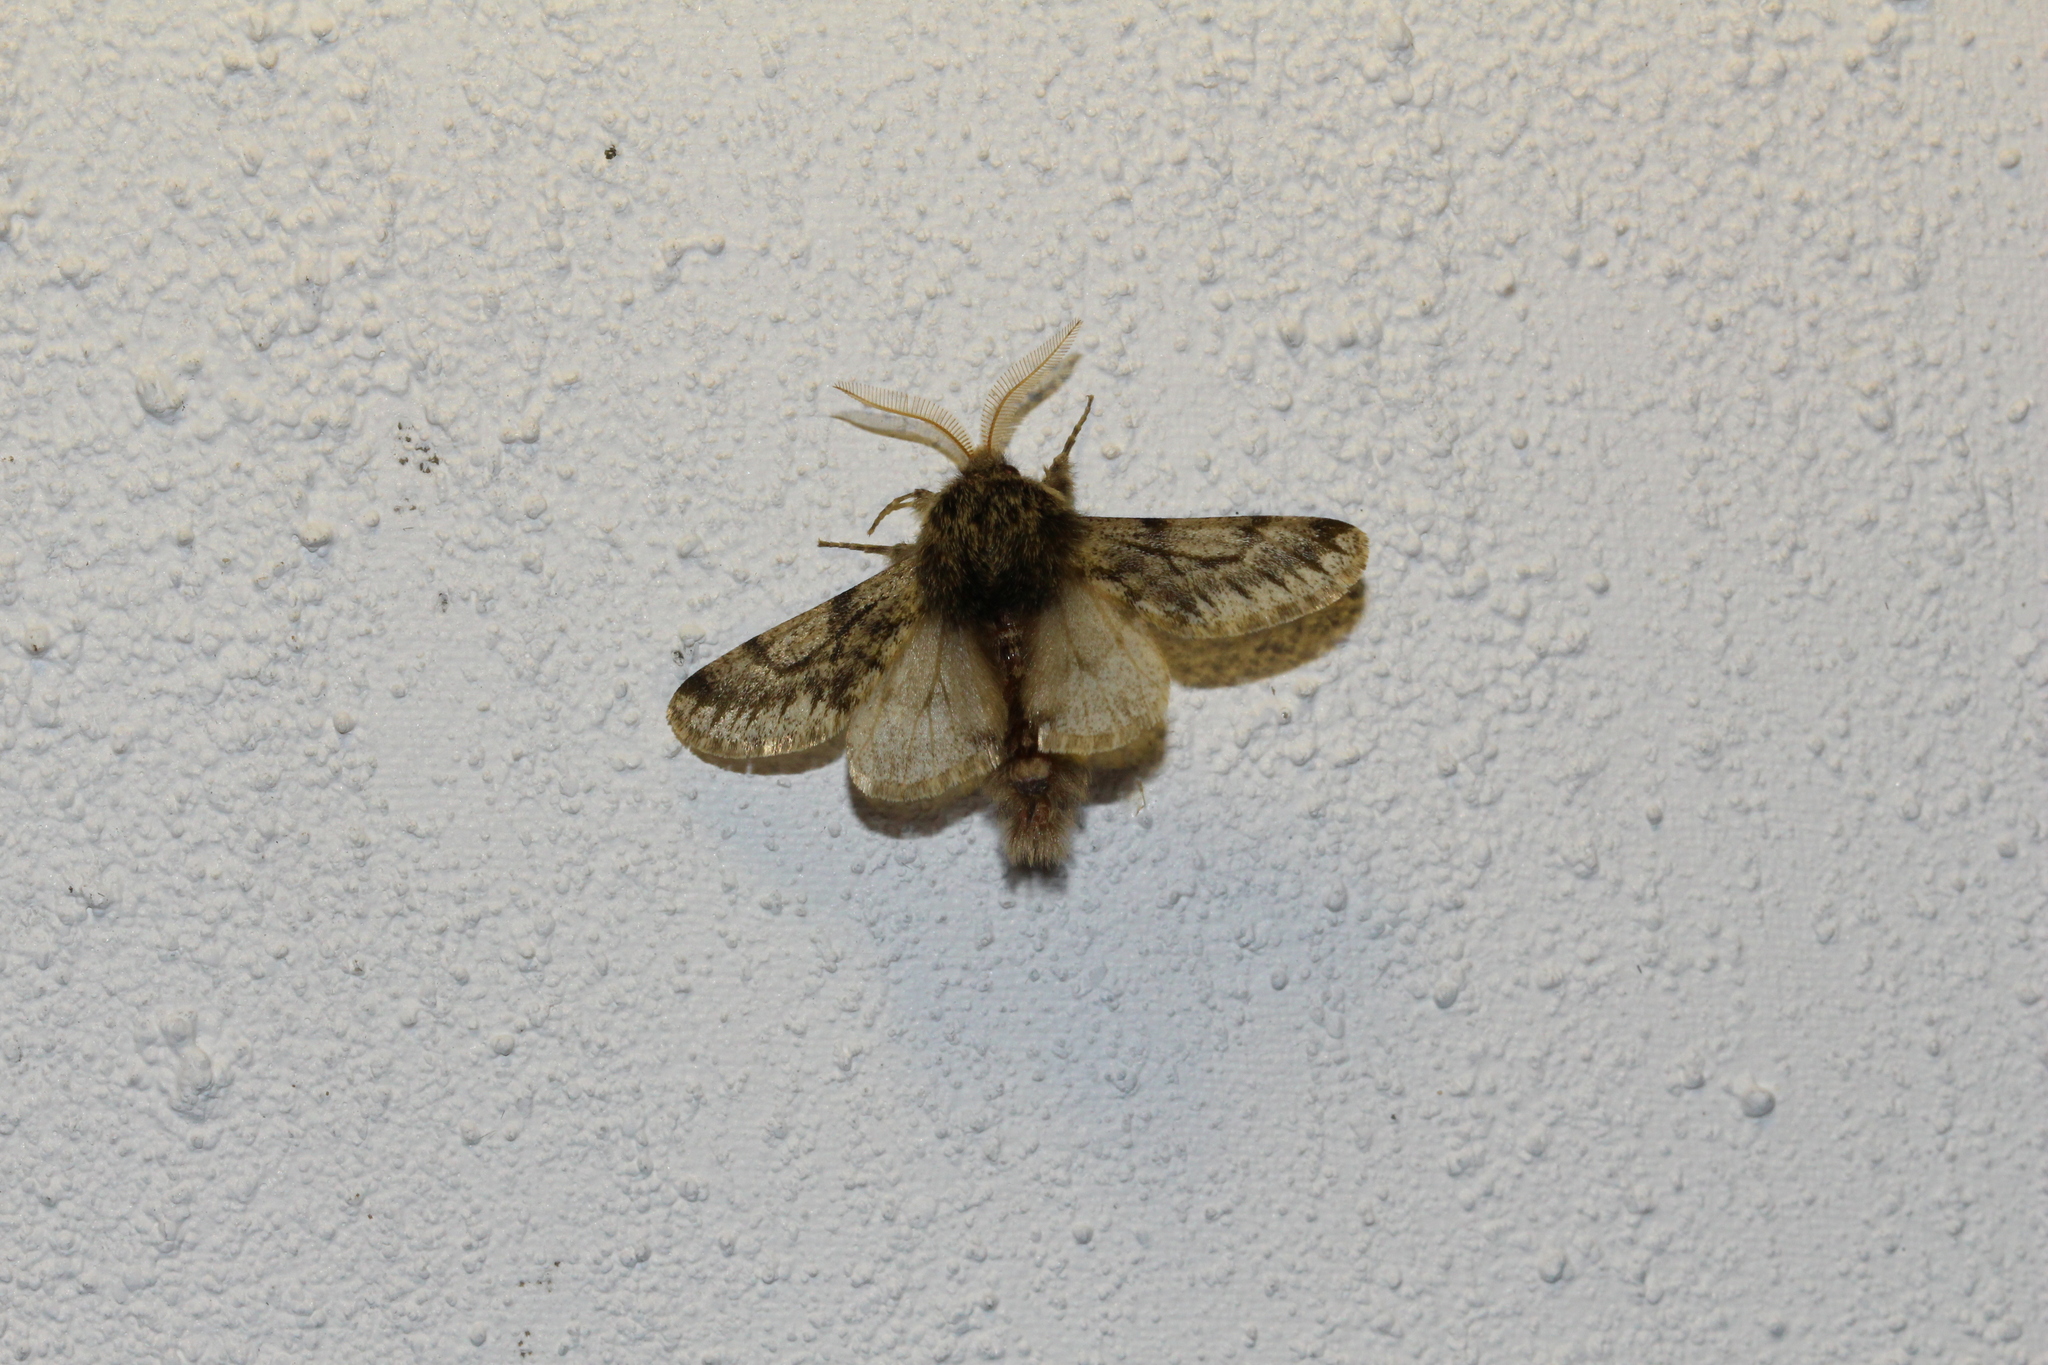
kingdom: Animalia
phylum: Arthropoda
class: Insecta
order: Lepidoptera
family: Geometridae
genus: Apocheima
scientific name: Apocheima hispidaria
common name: Small brindled beauty
